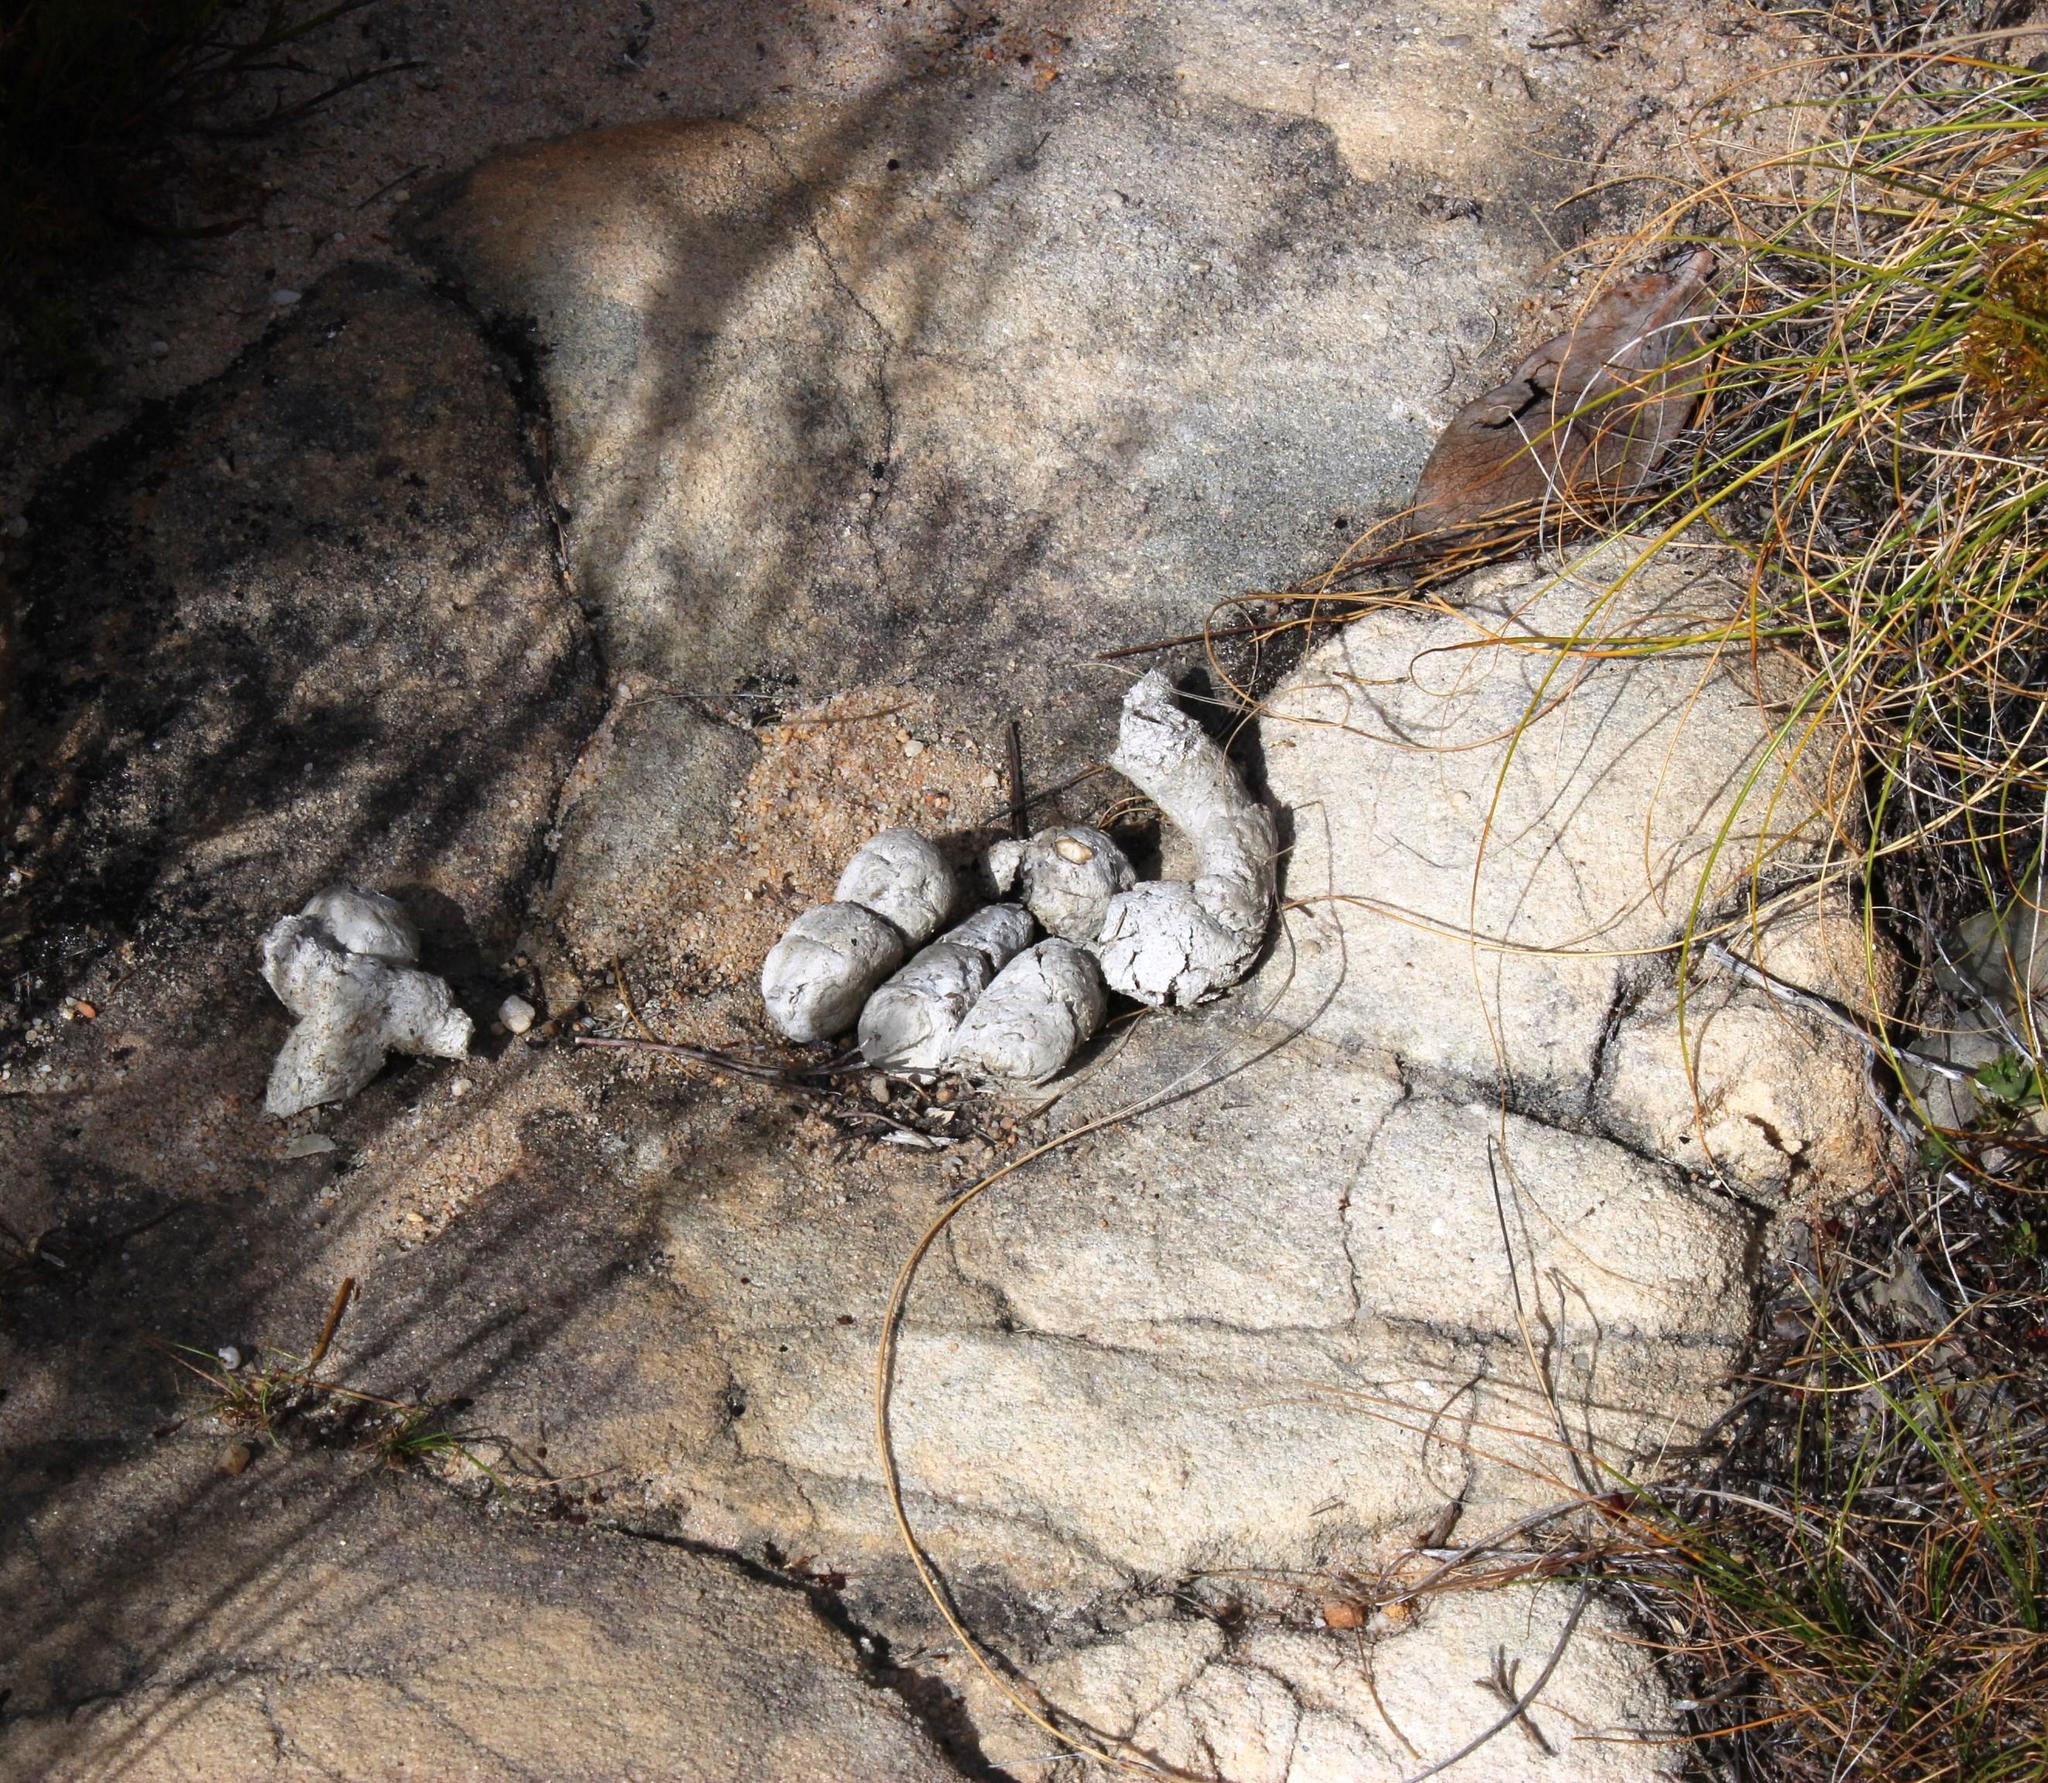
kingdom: Animalia
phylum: Chordata
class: Mammalia
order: Carnivora
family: Felidae
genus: Panthera
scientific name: Panthera pardus
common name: Leopard
